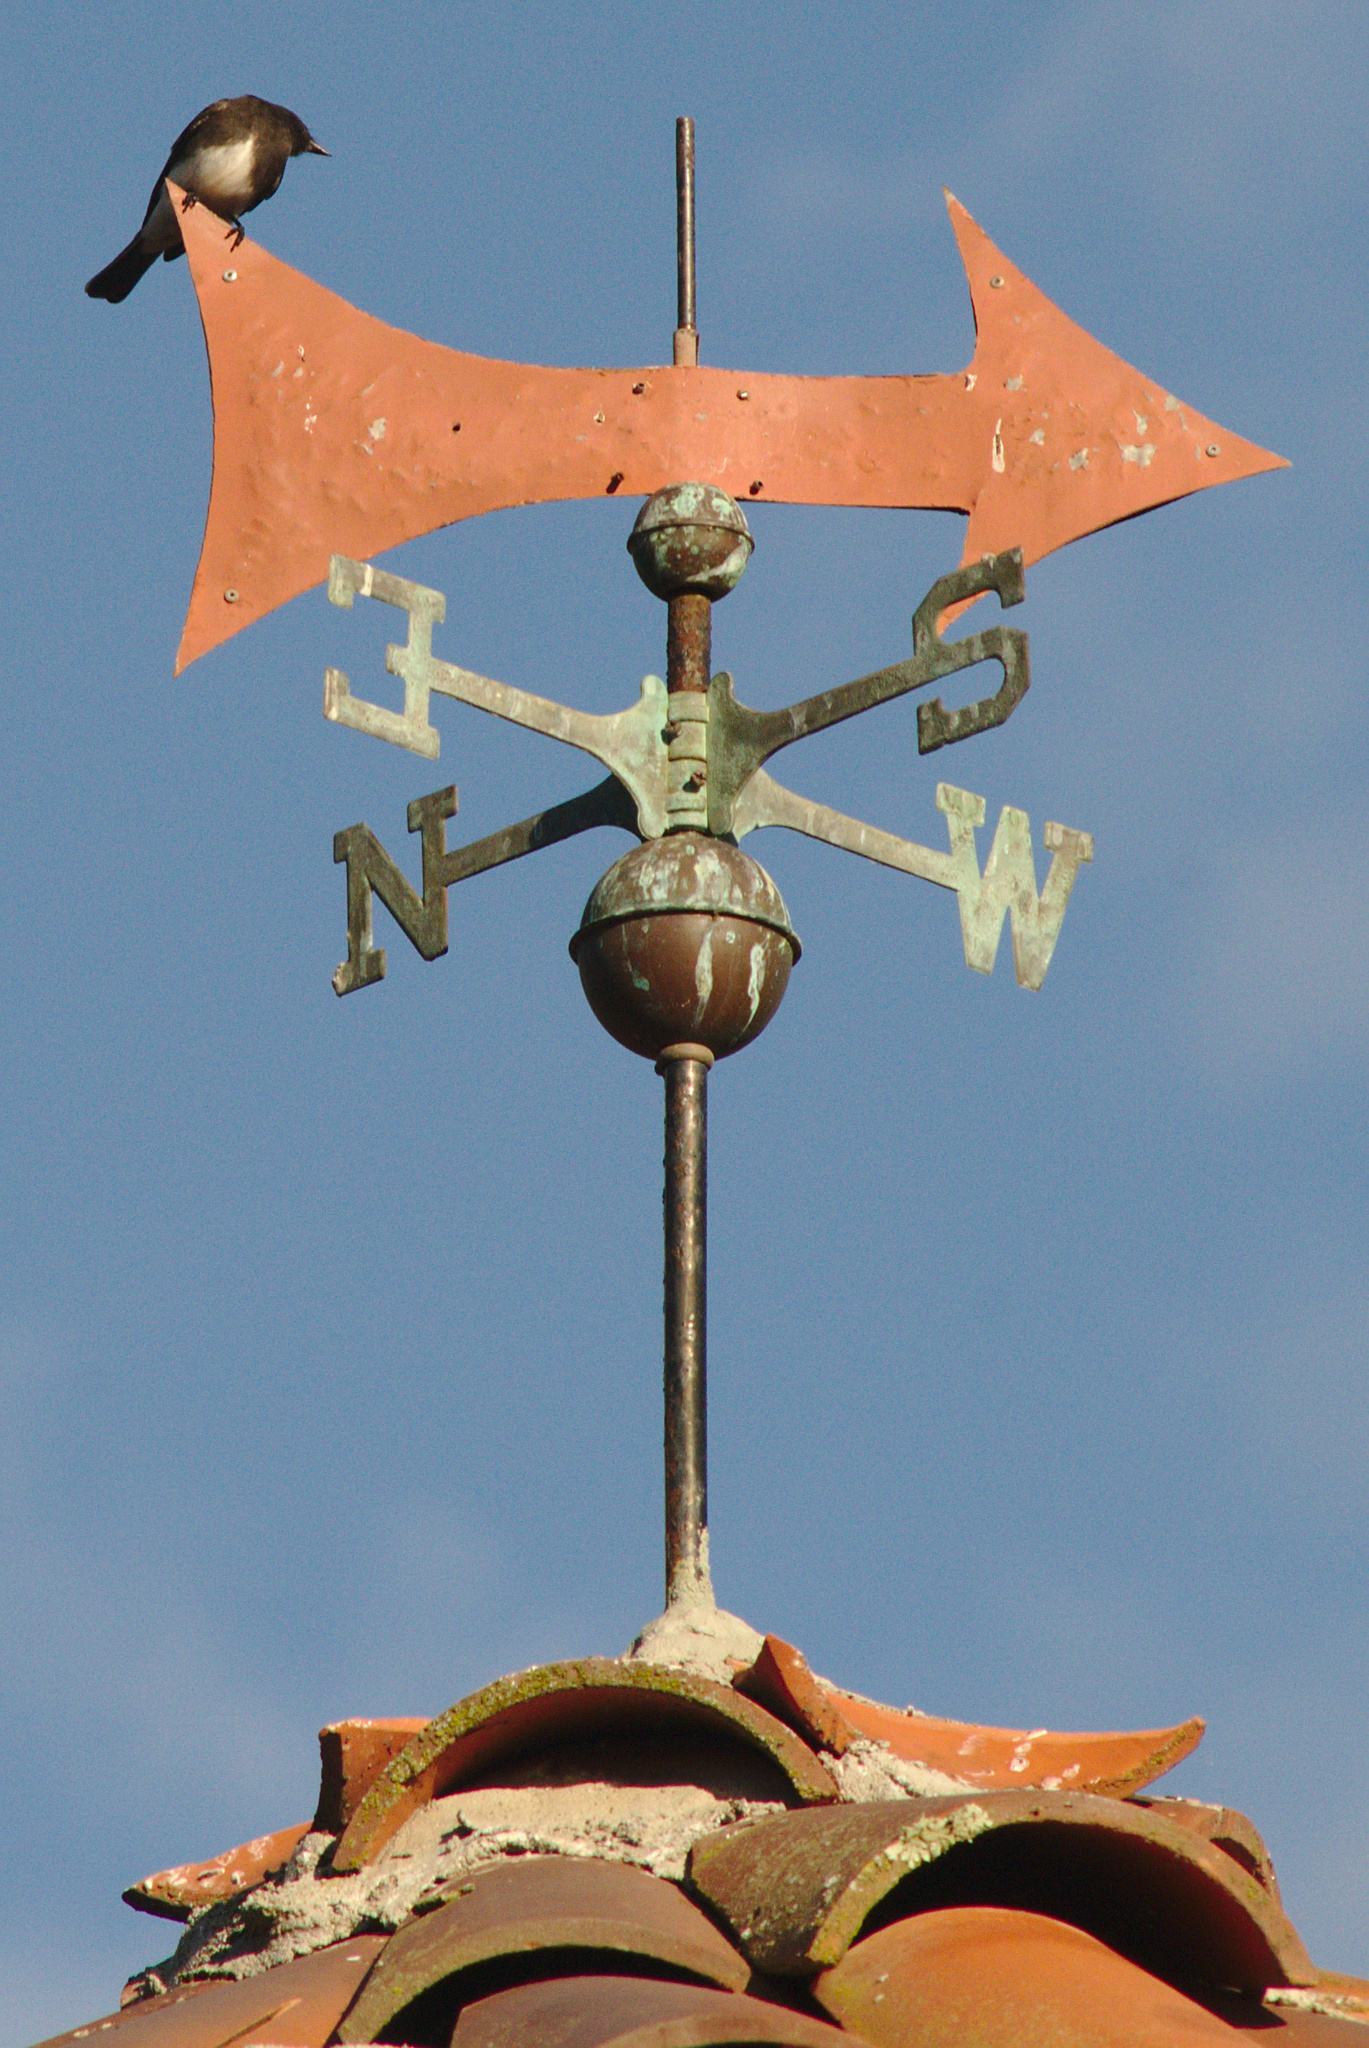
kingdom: Animalia
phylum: Chordata
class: Aves
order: Passeriformes
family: Tyrannidae
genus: Sayornis
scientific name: Sayornis nigricans
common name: Black phoebe
